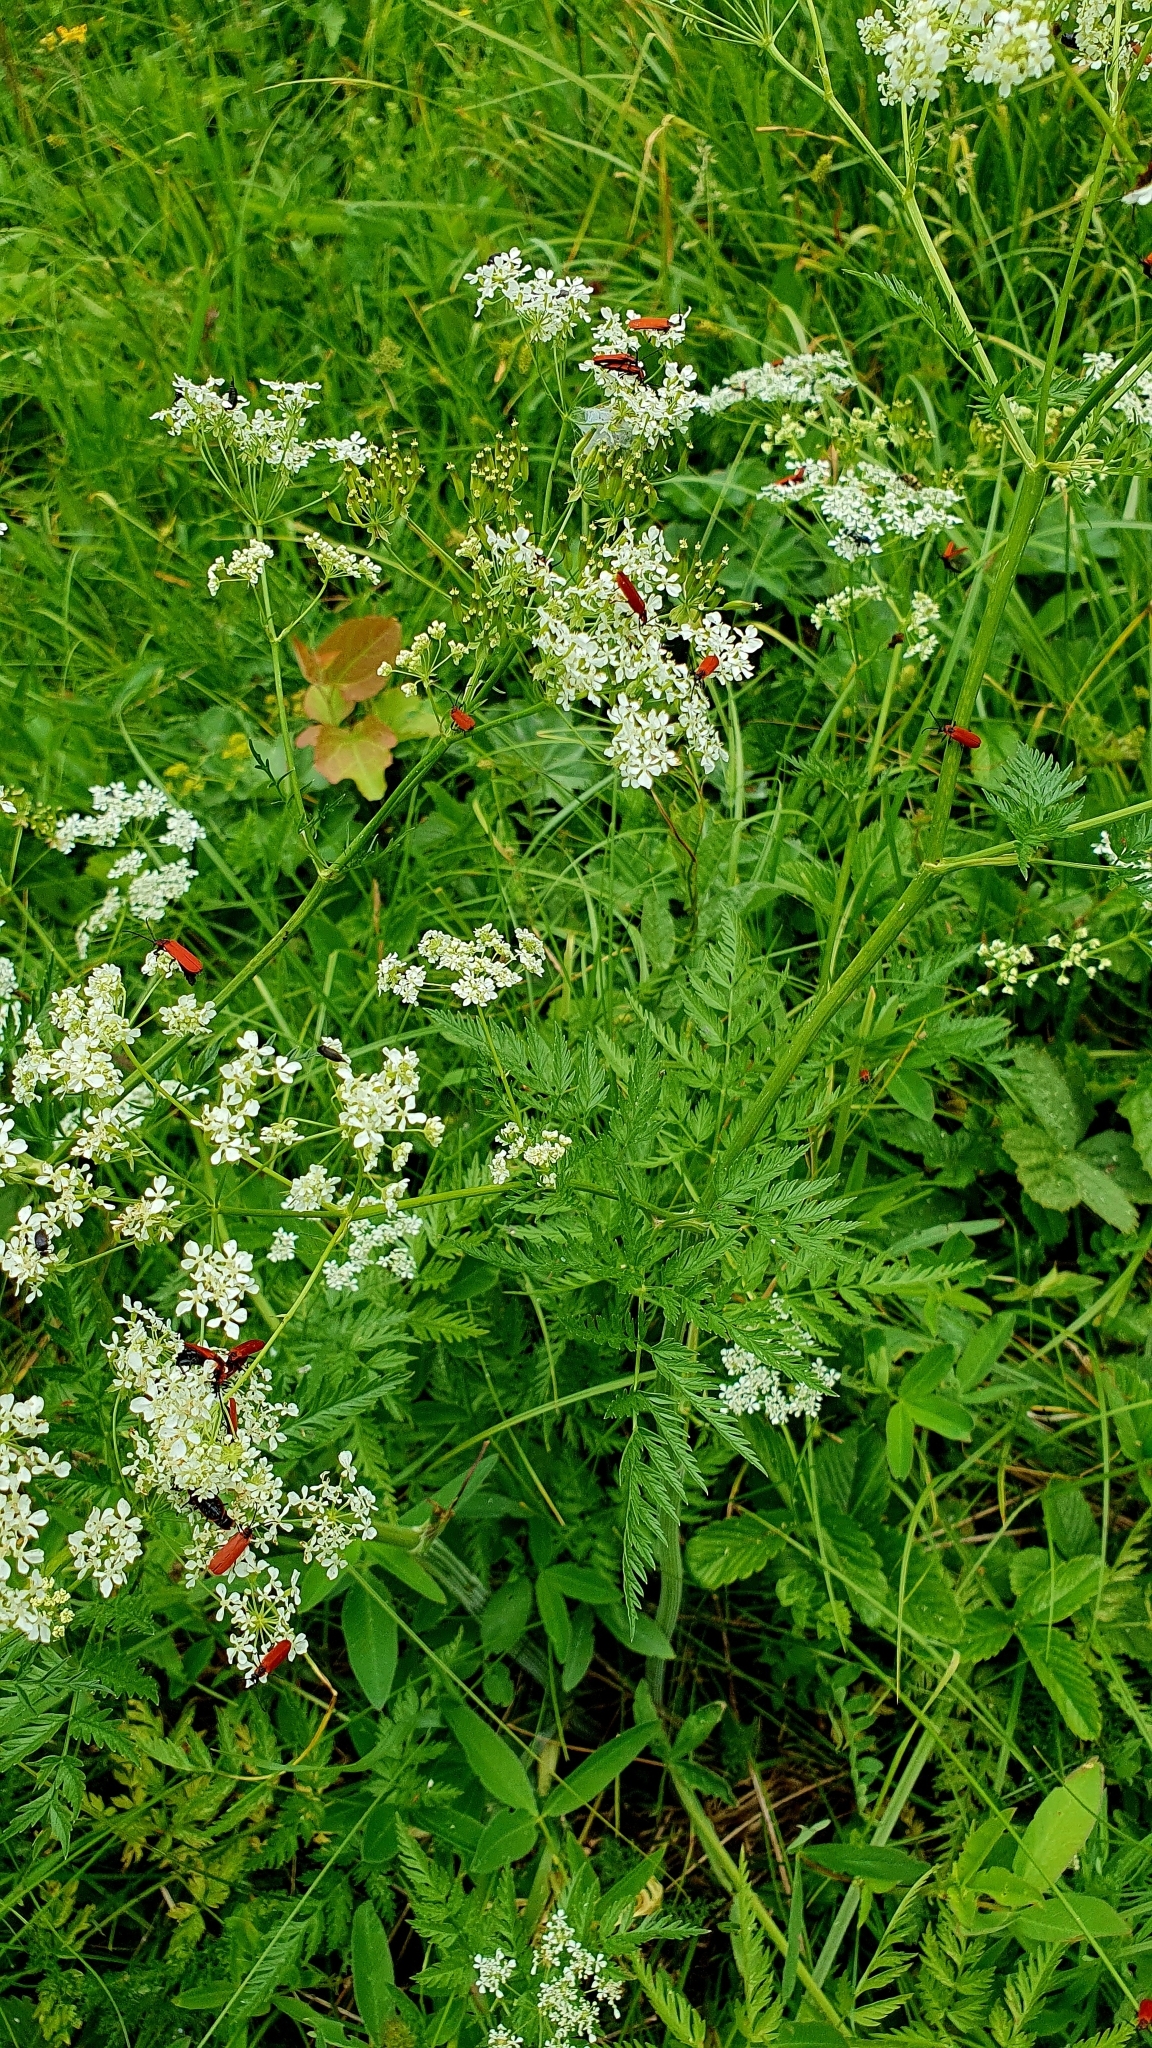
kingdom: Plantae
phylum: Tracheophyta
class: Magnoliopsida
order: Apiales
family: Apiaceae
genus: Anthriscus
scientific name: Anthriscus sylvestris
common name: Cow parsley
